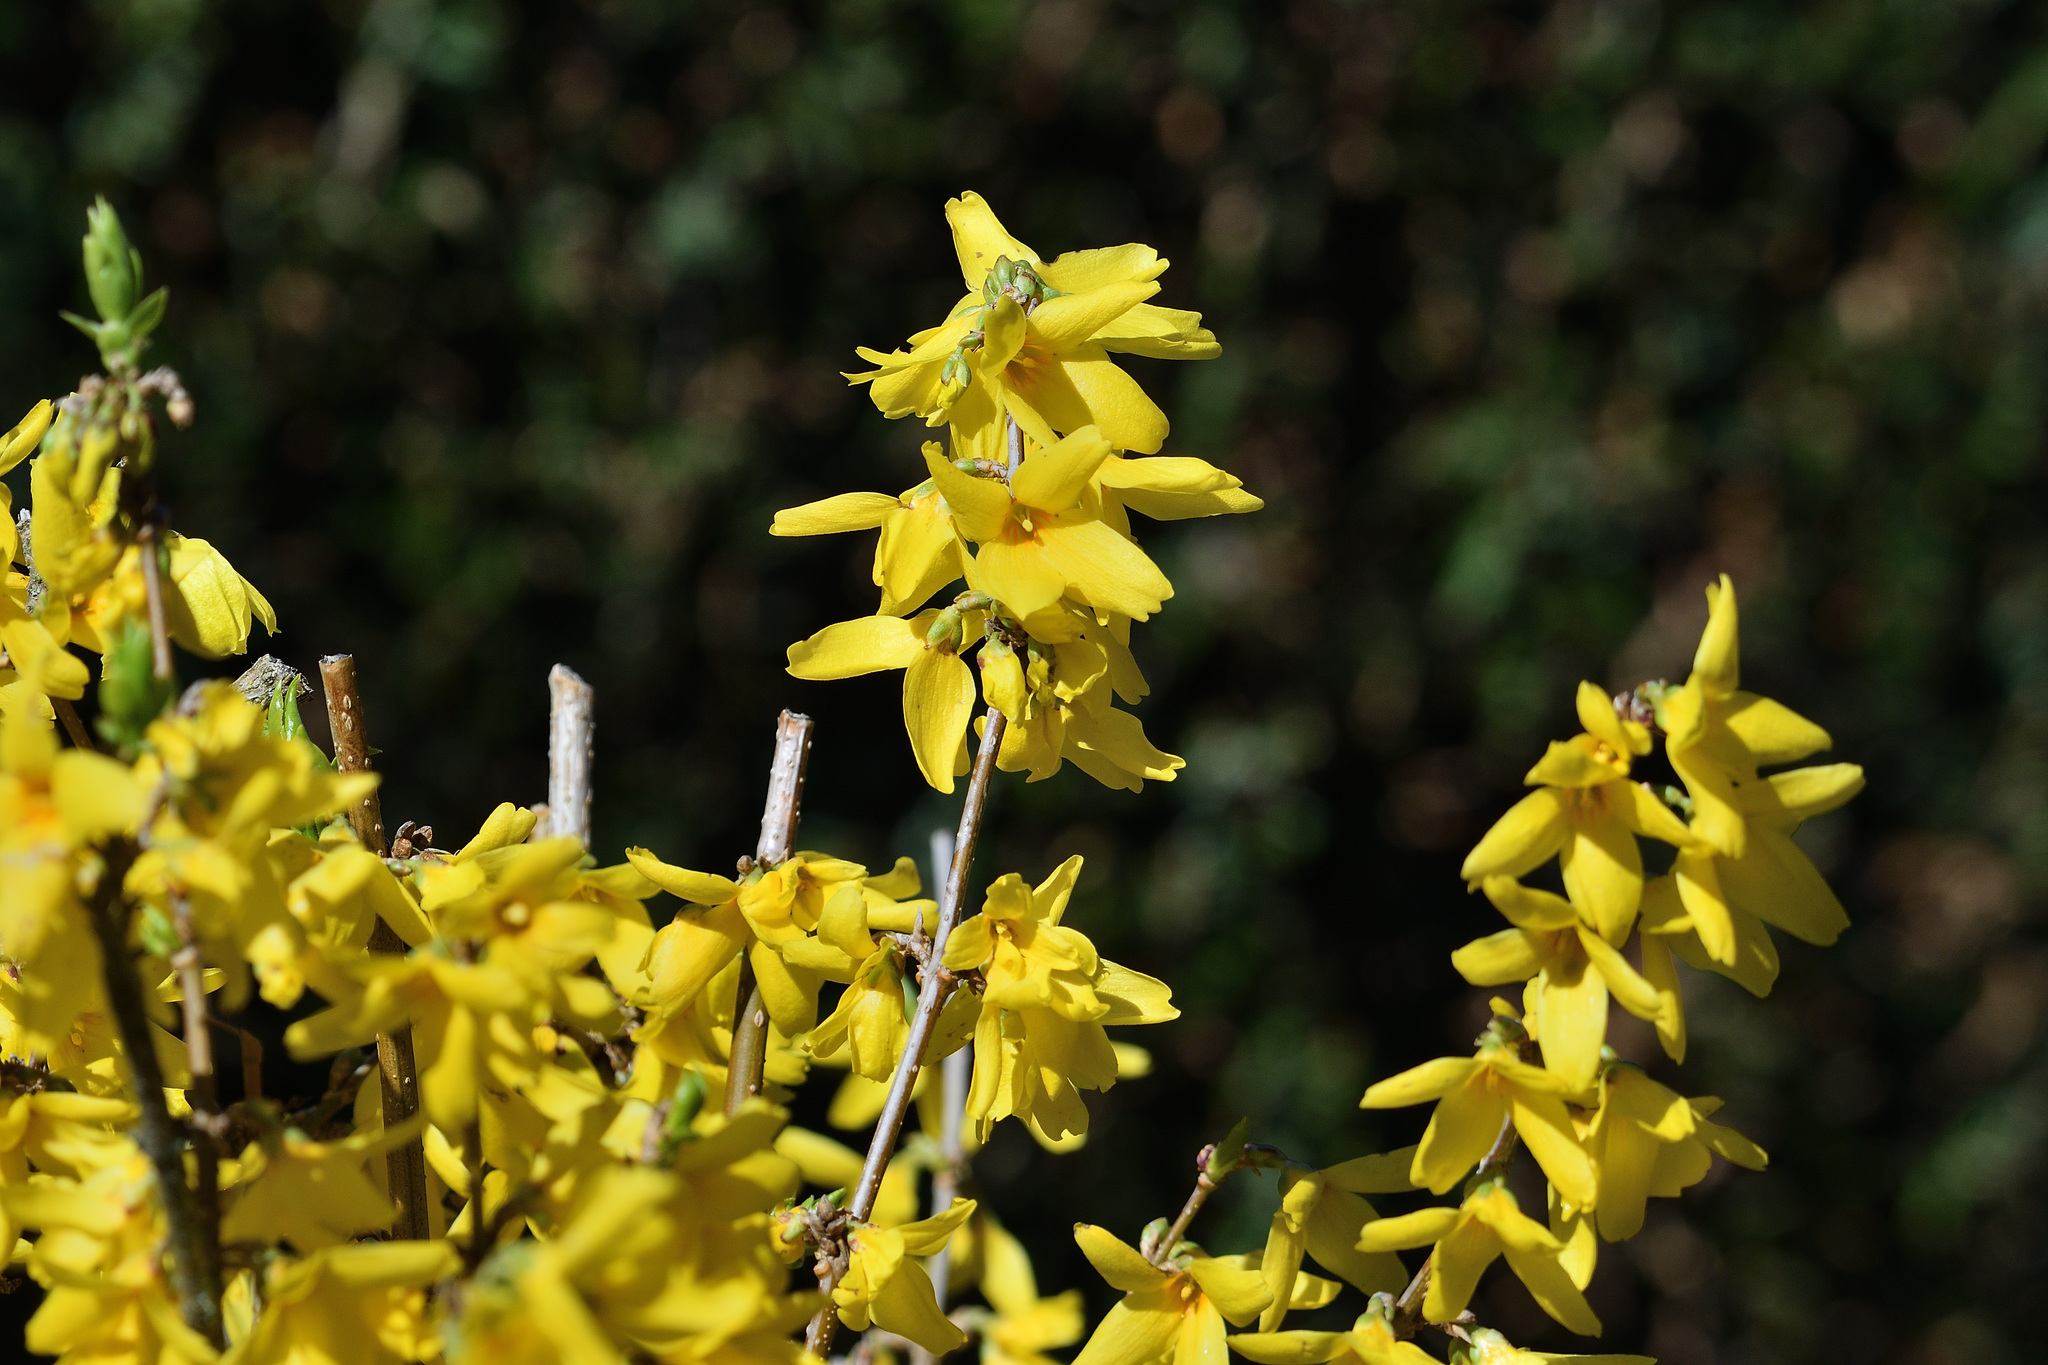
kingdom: Plantae
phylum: Tracheophyta
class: Magnoliopsida
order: Lamiales
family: Oleaceae
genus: Forsythia
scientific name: Forsythia intermedia
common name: Forsythia
